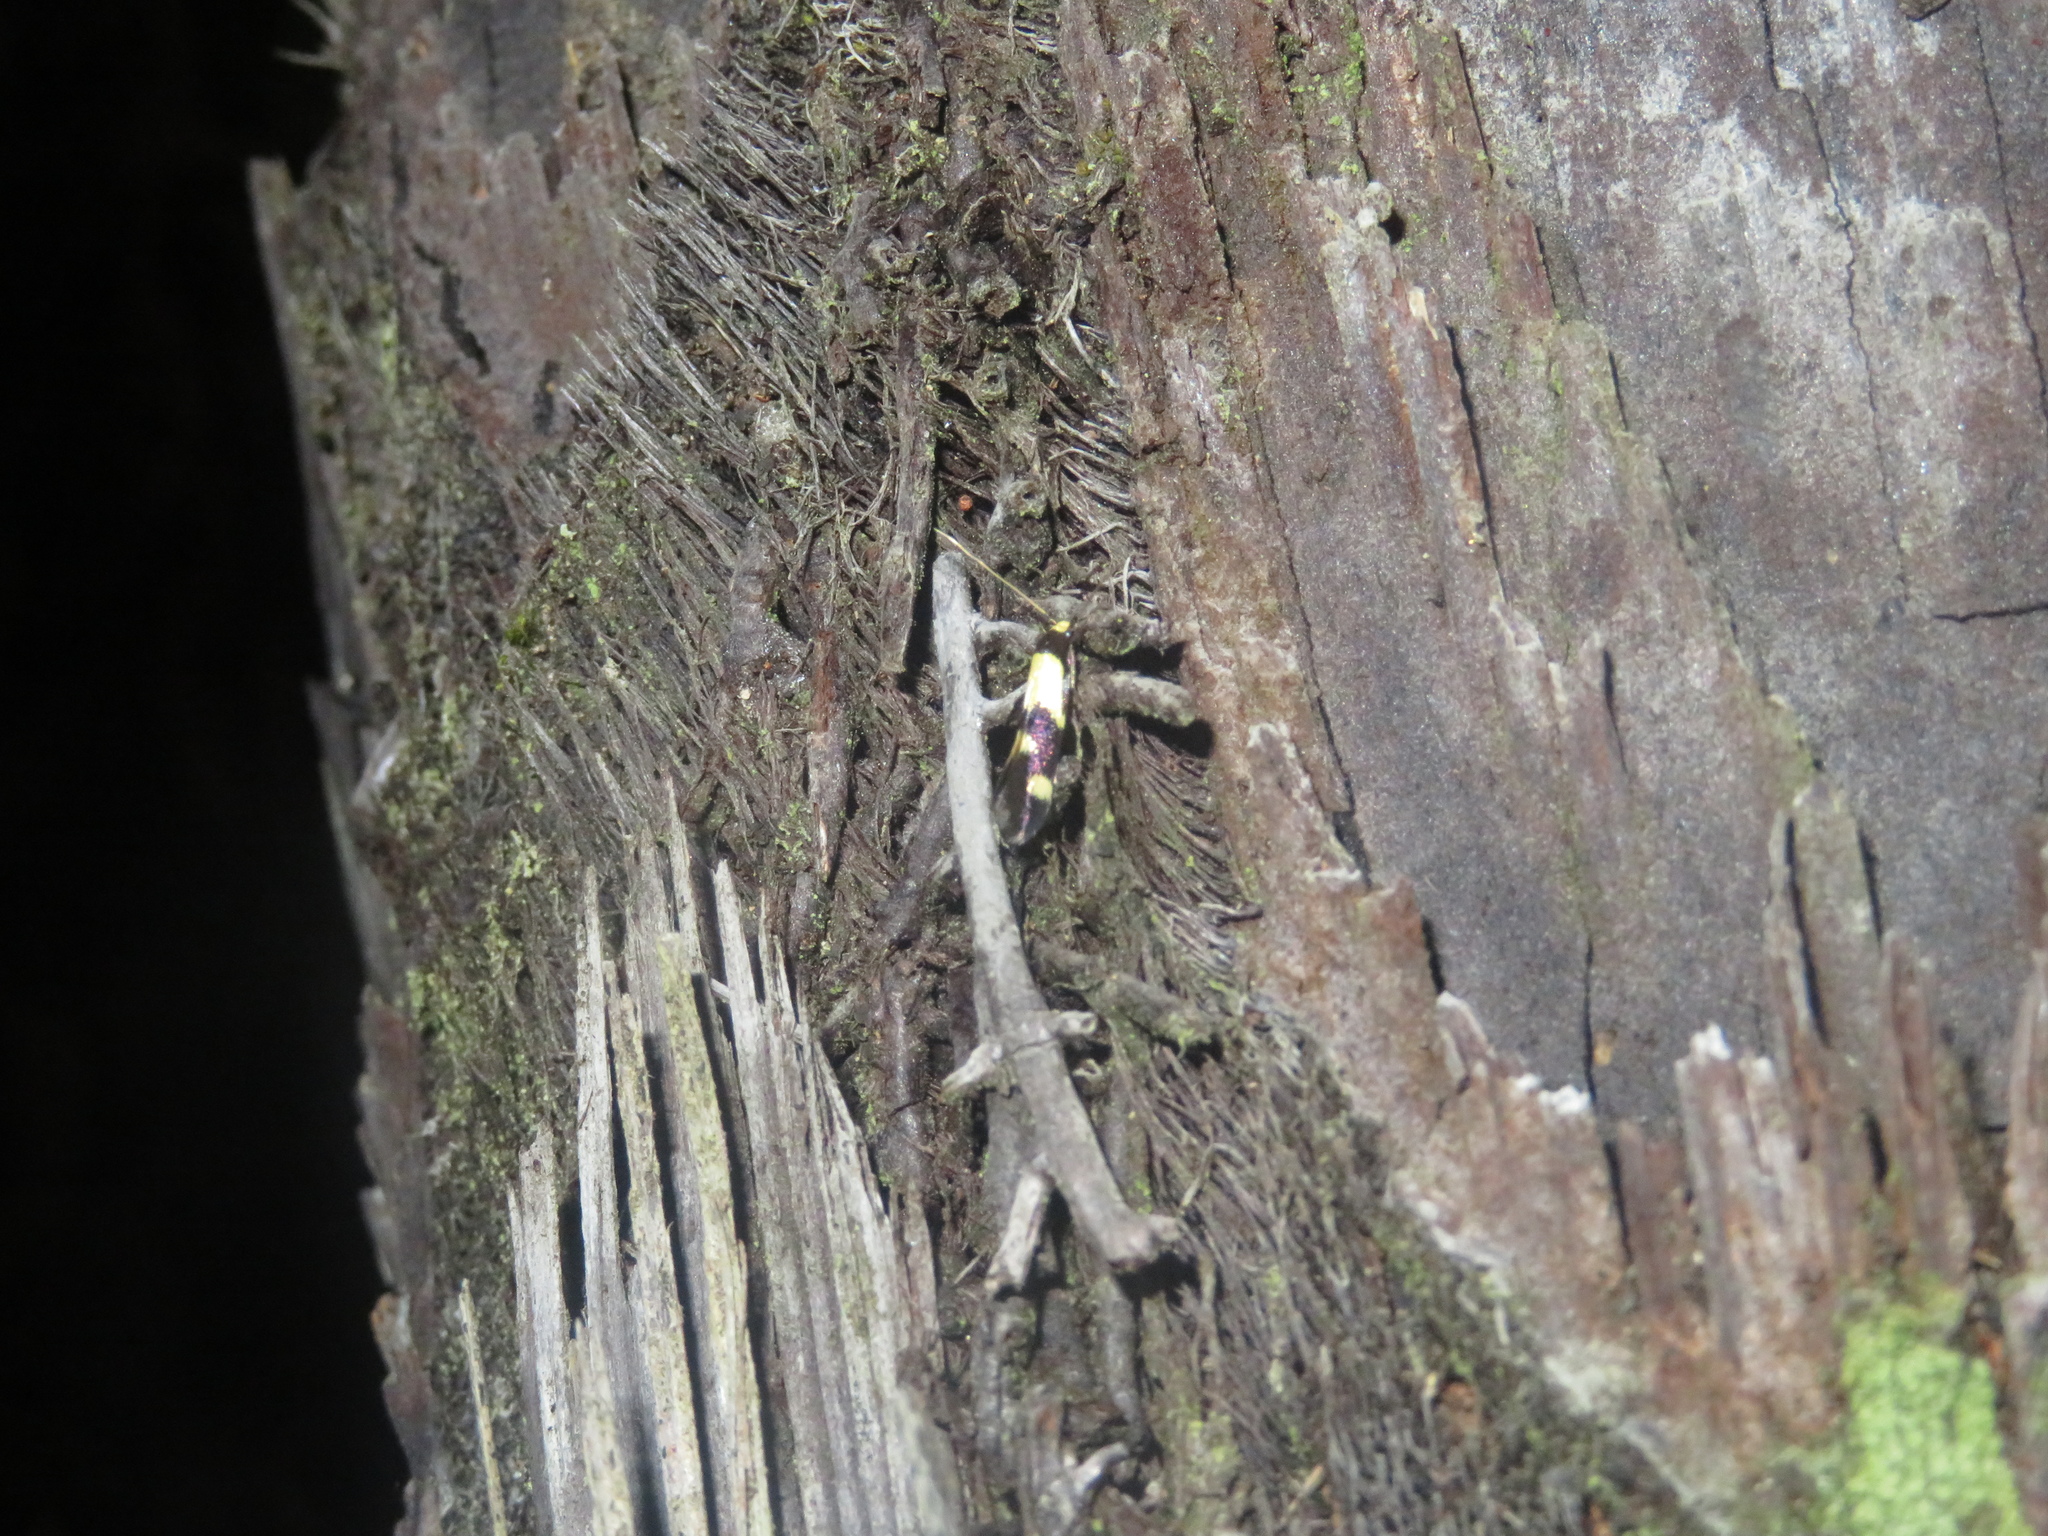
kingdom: Animalia
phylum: Arthropoda
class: Insecta
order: Lepidoptera
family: Tineidae
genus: Opogona
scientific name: Opogona comptella
